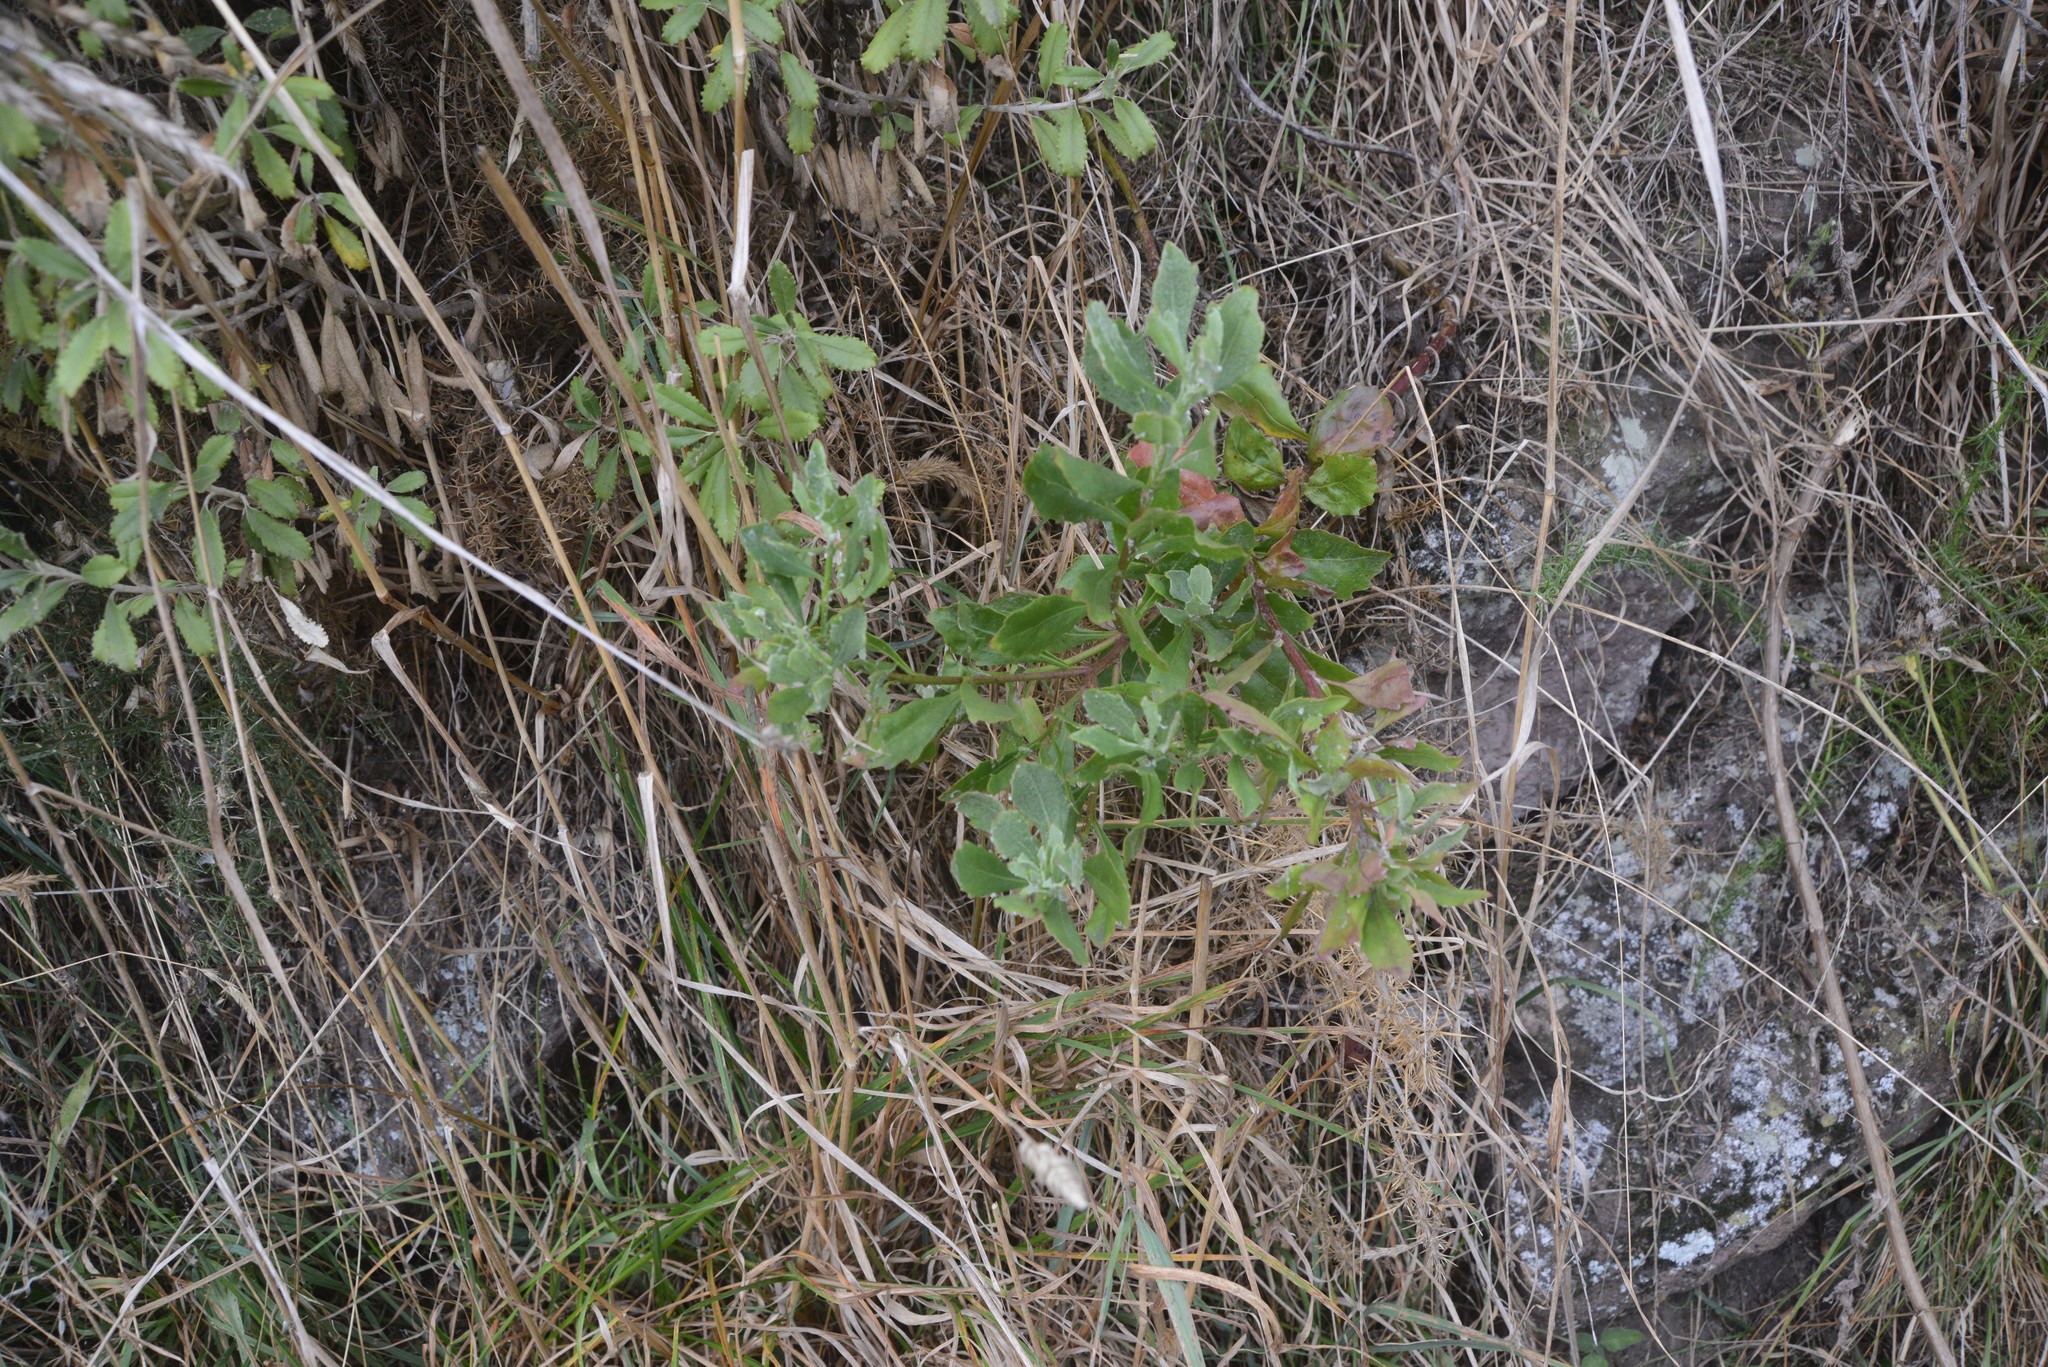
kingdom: Plantae
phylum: Tracheophyta
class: Magnoliopsida
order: Asterales
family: Asteraceae
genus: Osteospermum
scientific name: Osteospermum moniliferum
